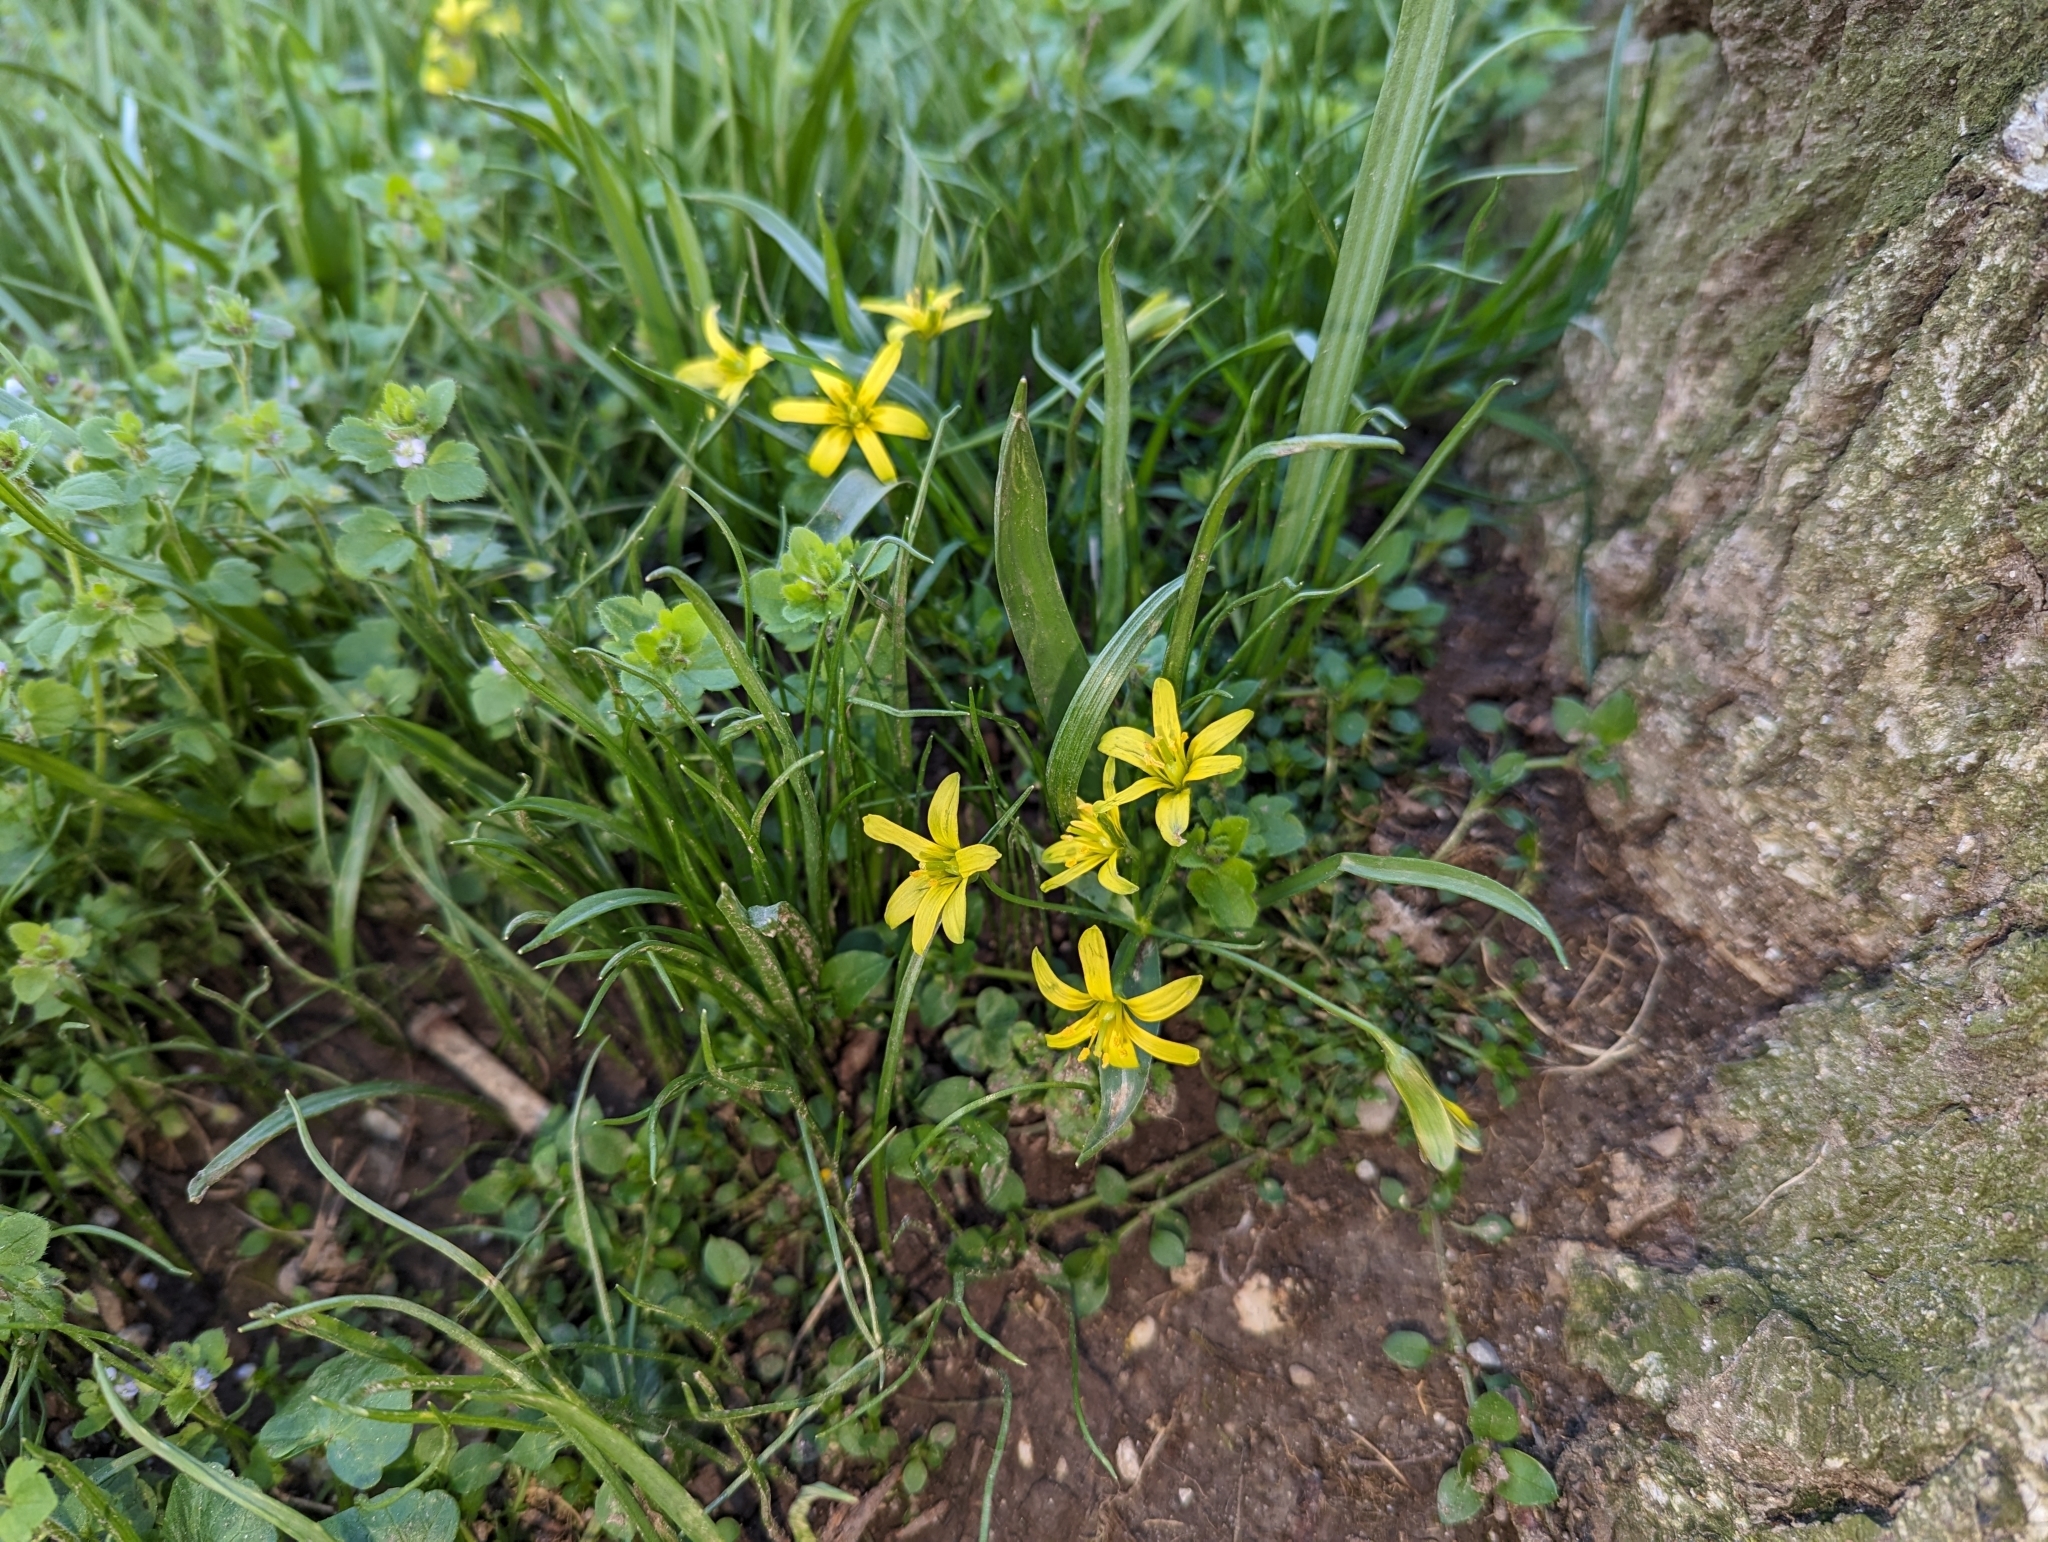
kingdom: Plantae
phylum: Tracheophyta
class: Liliopsida
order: Liliales
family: Liliaceae
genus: Gagea
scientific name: Gagea lutea
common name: Yellow star-of-bethlehem
